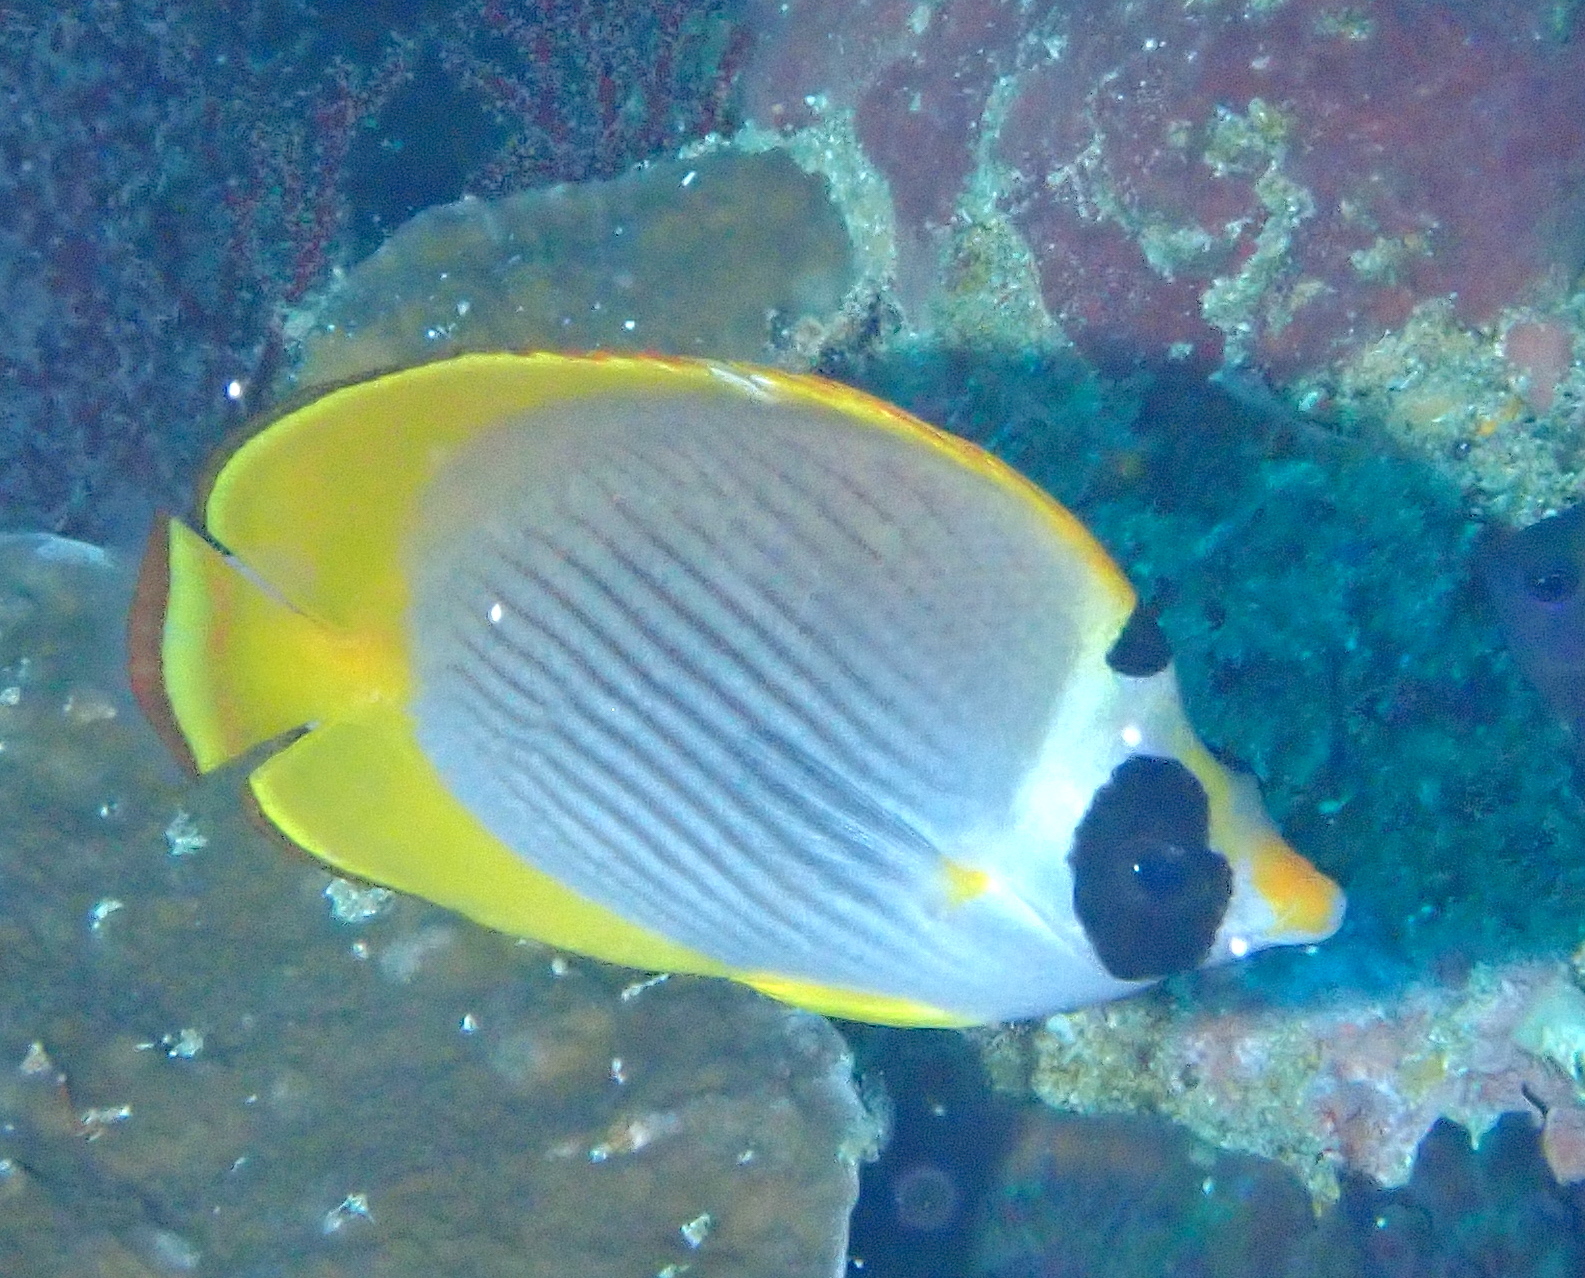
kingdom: Animalia
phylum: Chordata
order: Perciformes
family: Chaetodontidae
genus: Chaetodon
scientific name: Chaetodon adiergastos
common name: Eye-patch butterflyfish
